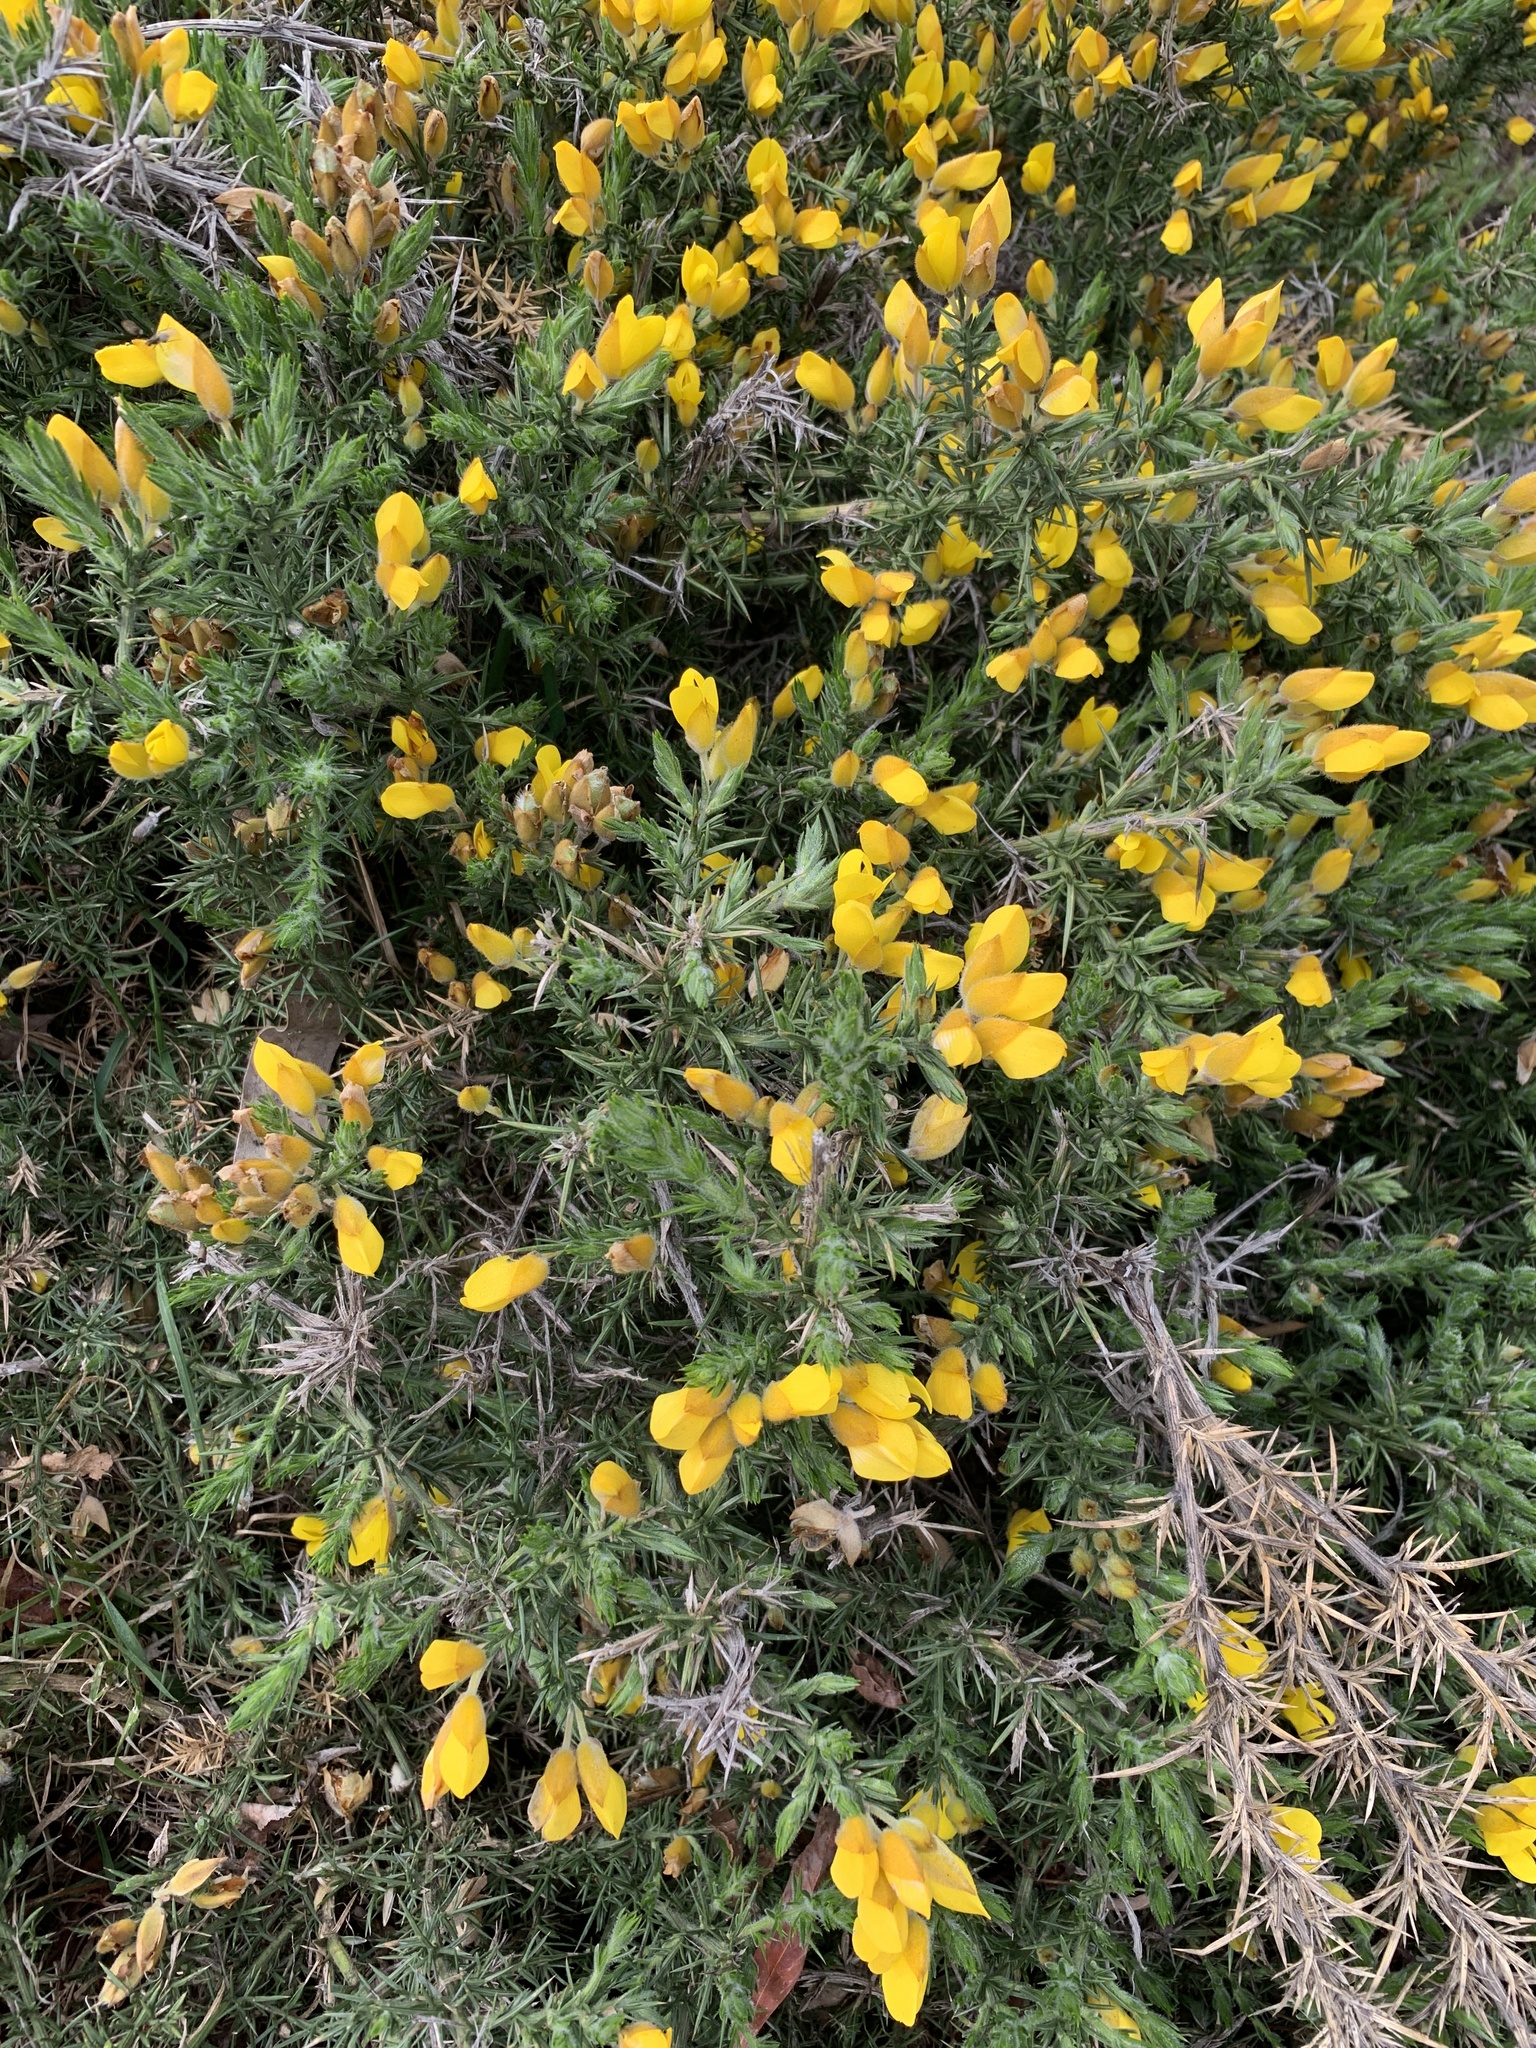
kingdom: Plantae
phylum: Tracheophyta
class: Magnoliopsida
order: Fabales
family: Fabaceae
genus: Ulex
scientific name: Ulex europaeus
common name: Common gorse
